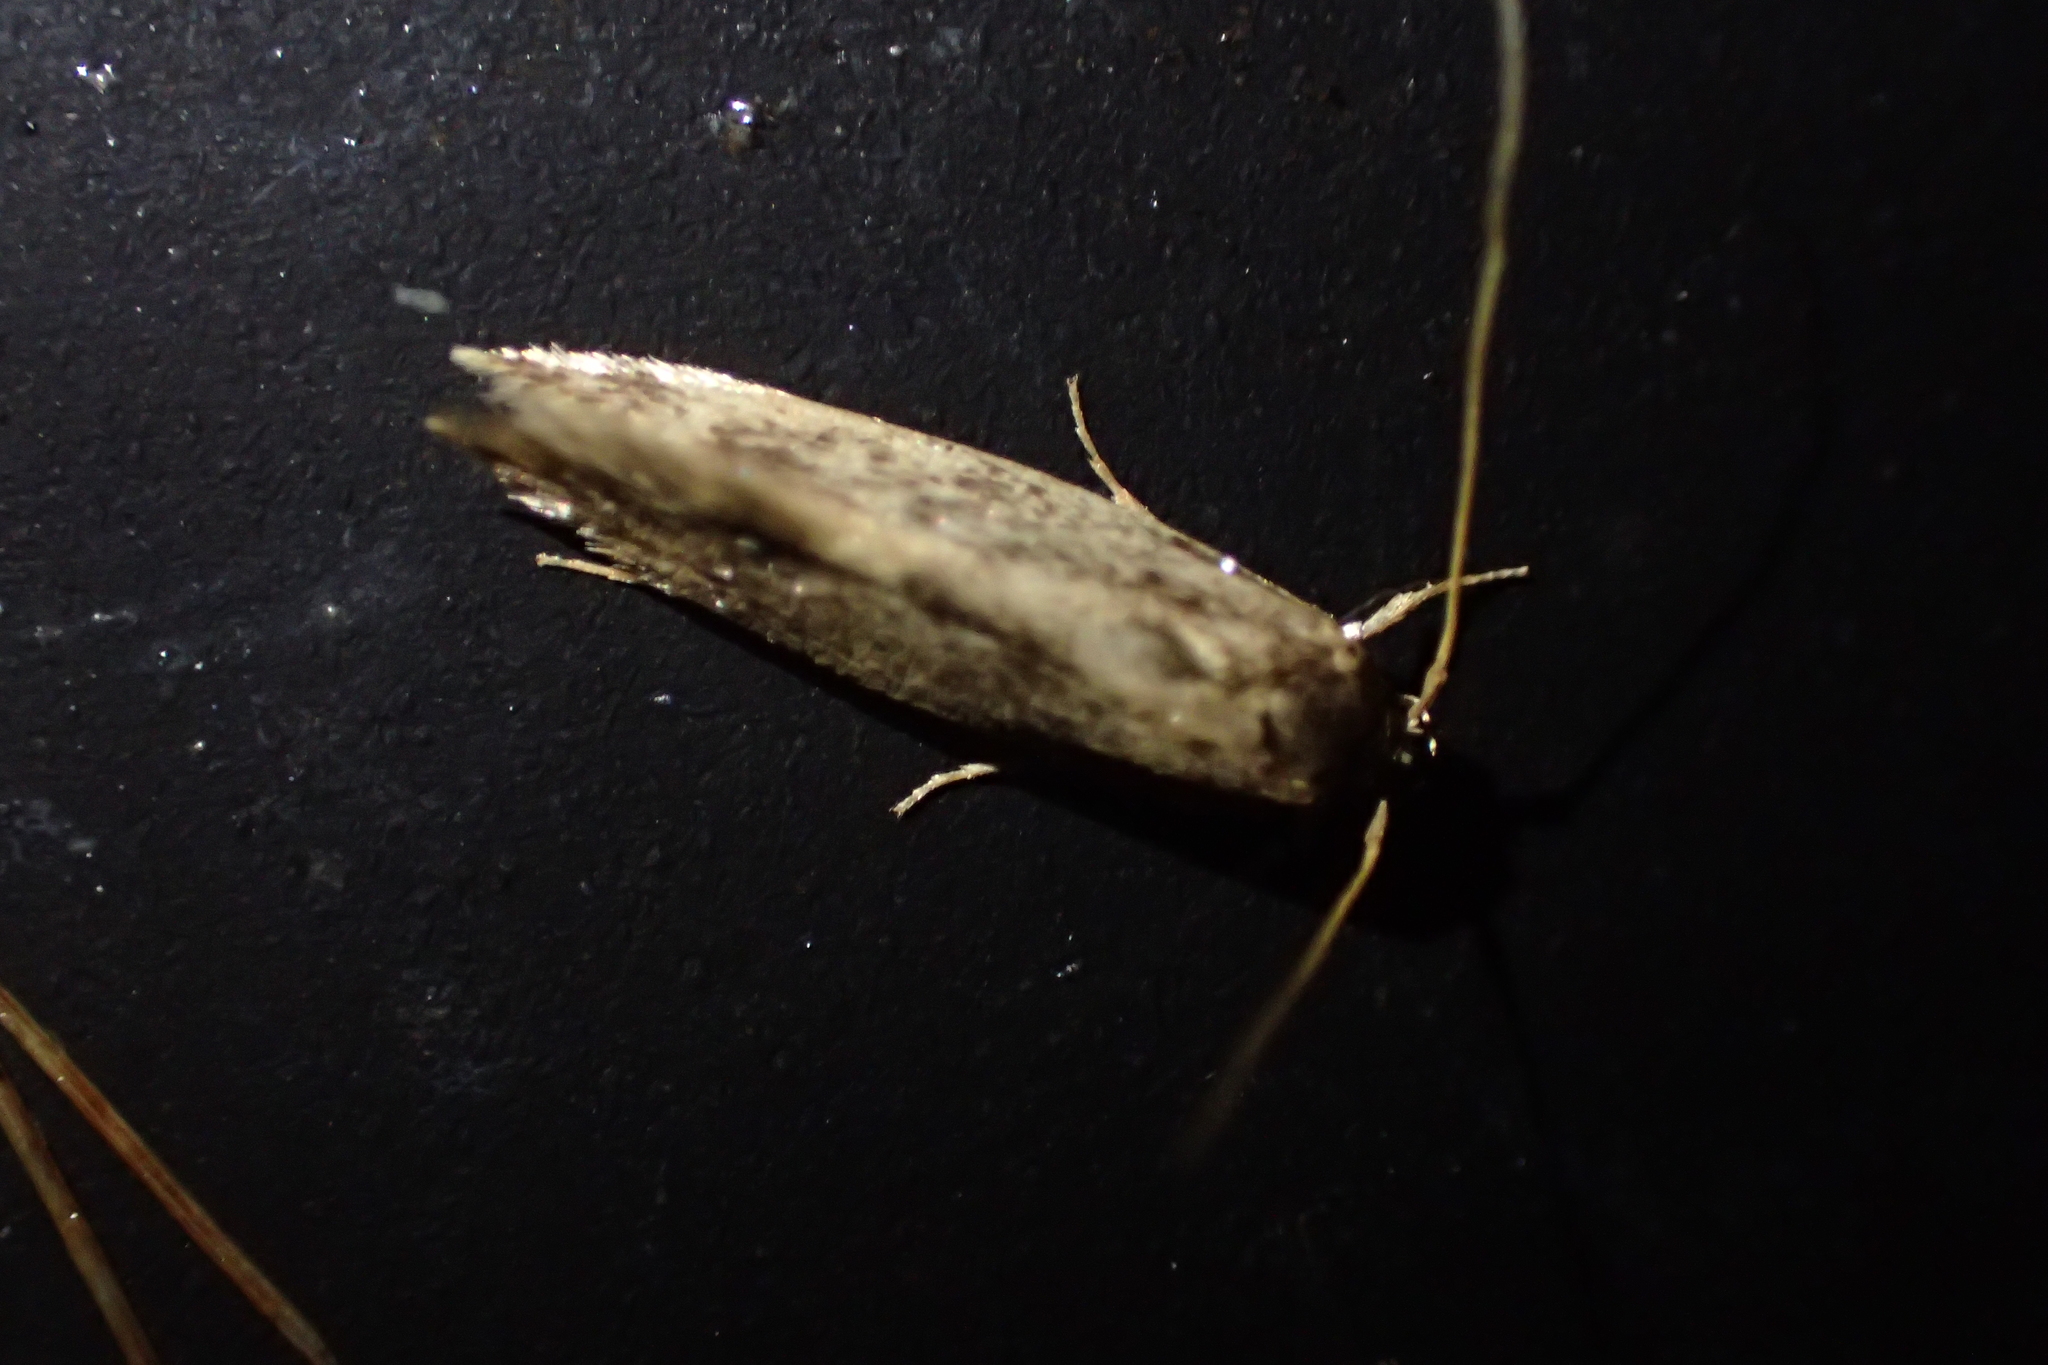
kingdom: Animalia
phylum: Arthropoda
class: Insecta
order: Lepidoptera
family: Tineidae
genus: Opogona
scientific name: Opogona omoscopa
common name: Moth
